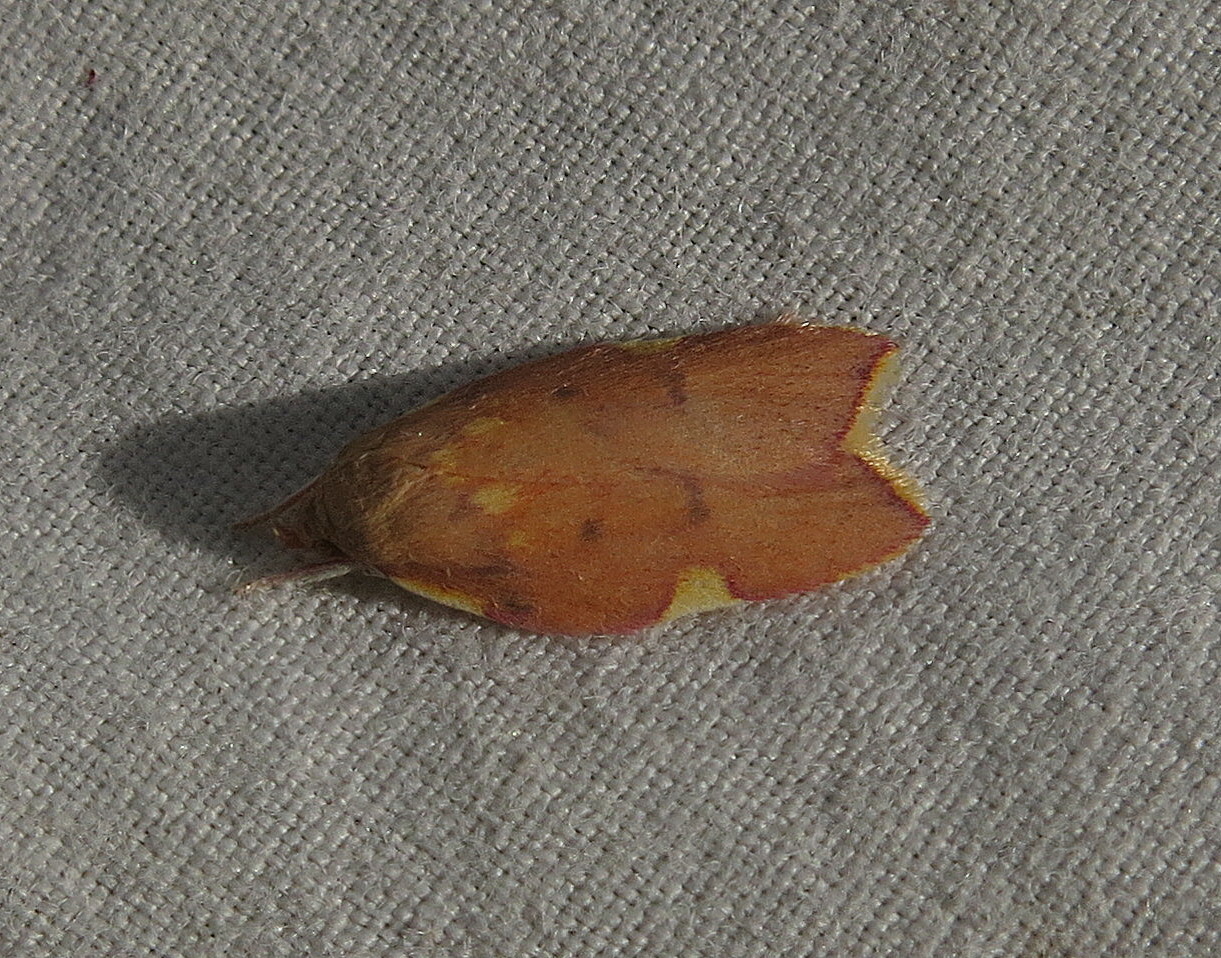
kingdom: Animalia
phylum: Arthropoda
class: Insecta
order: Lepidoptera
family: Peleopodidae
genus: Carcina
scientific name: Carcina quercana
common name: Moth
